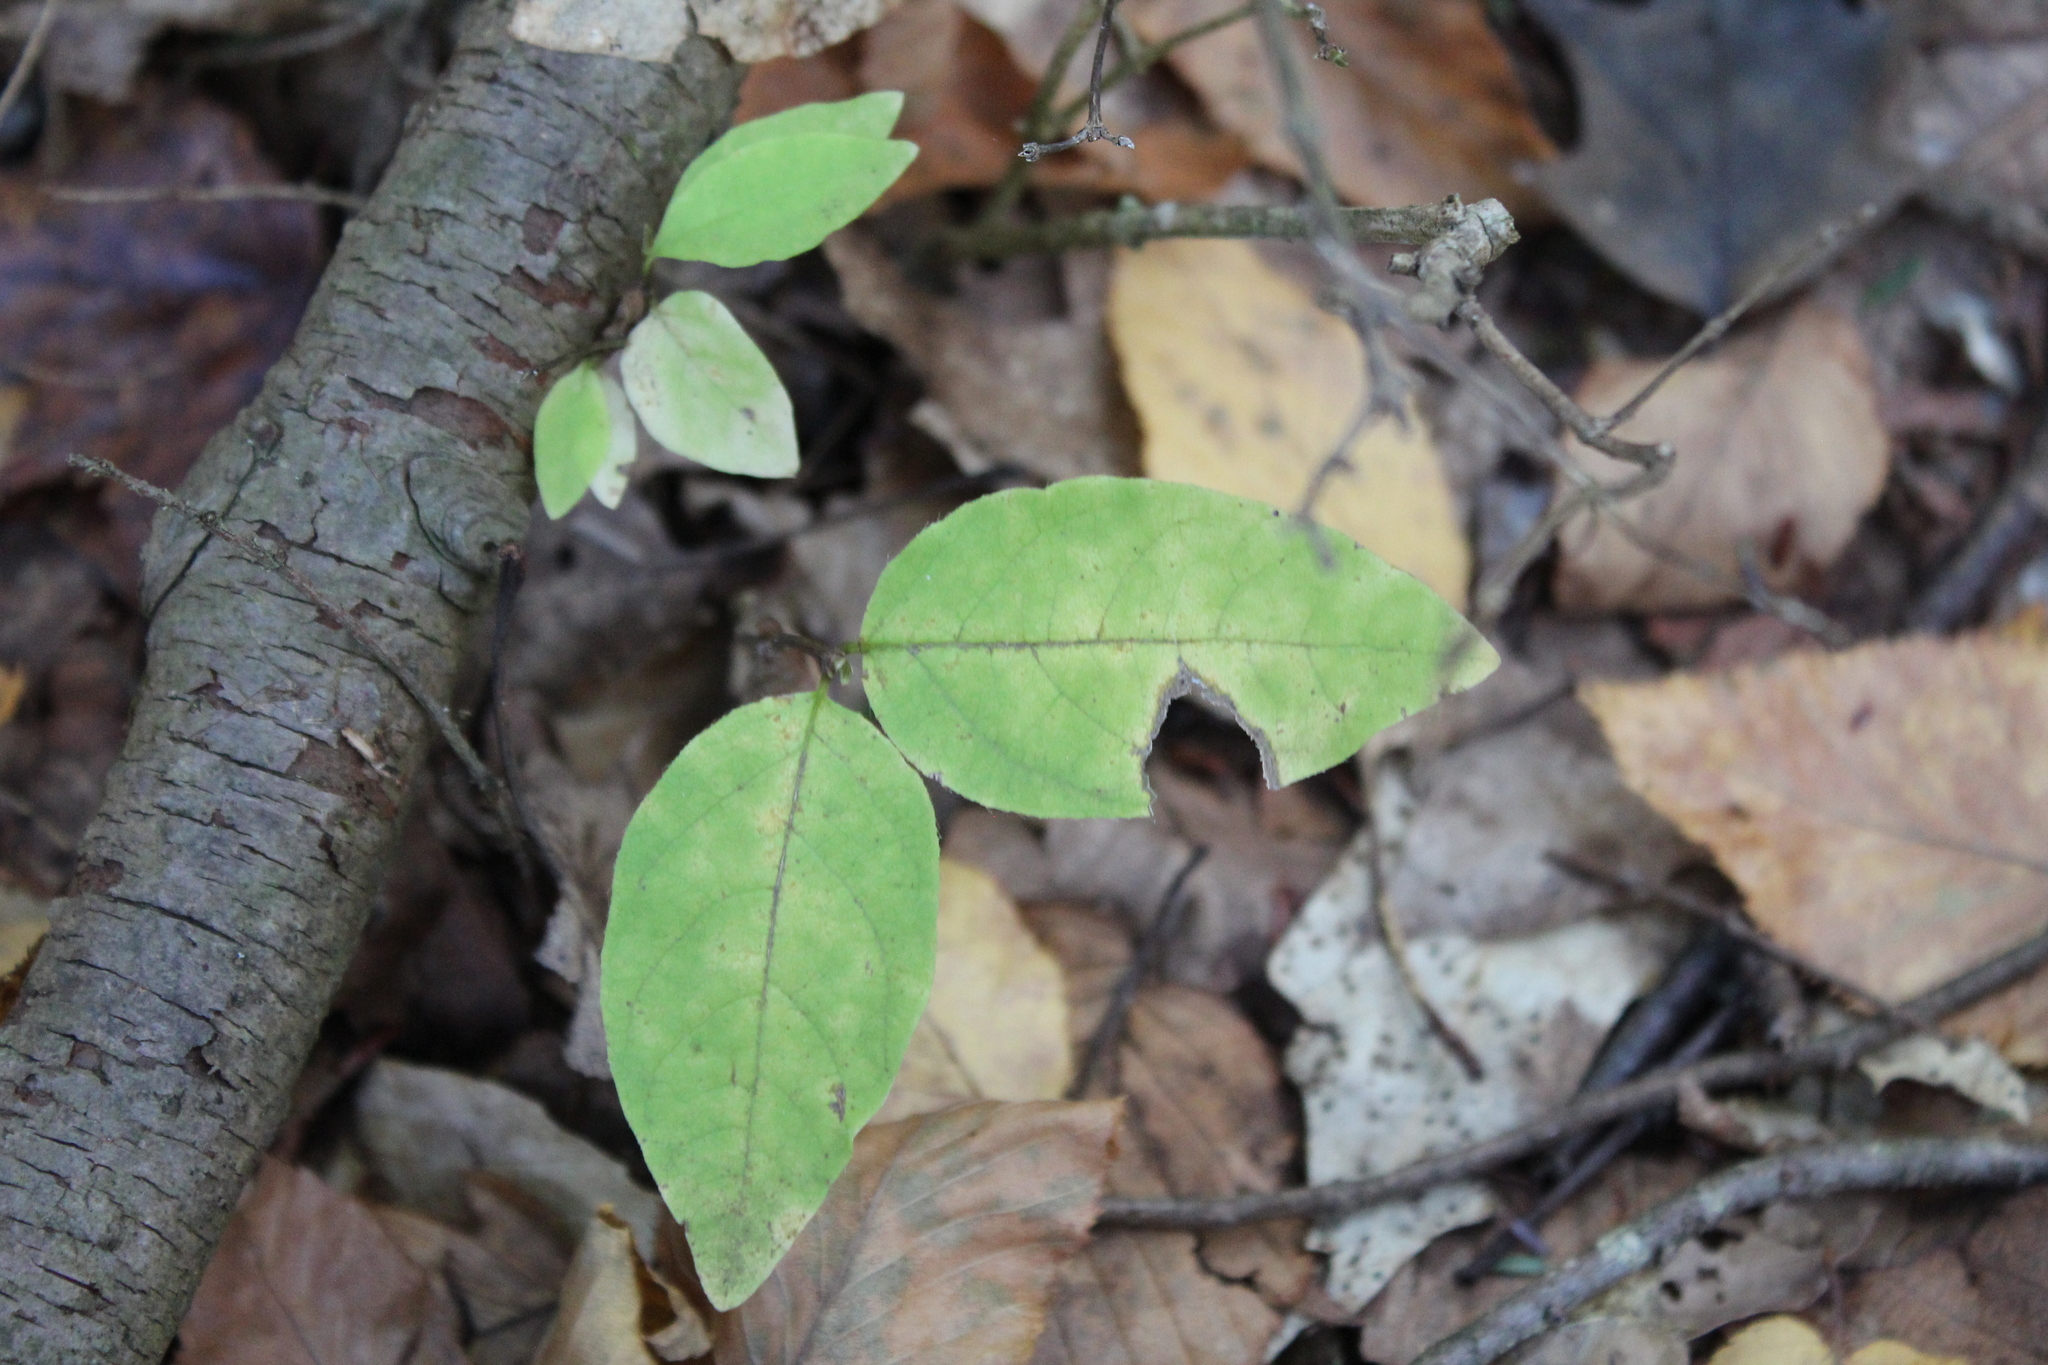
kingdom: Plantae
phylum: Tracheophyta
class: Magnoliopsida
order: Dipsacales
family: Caprifoliaceae
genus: Lonicera
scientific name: Lonicera canadensis
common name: American fly-honeysuckle
